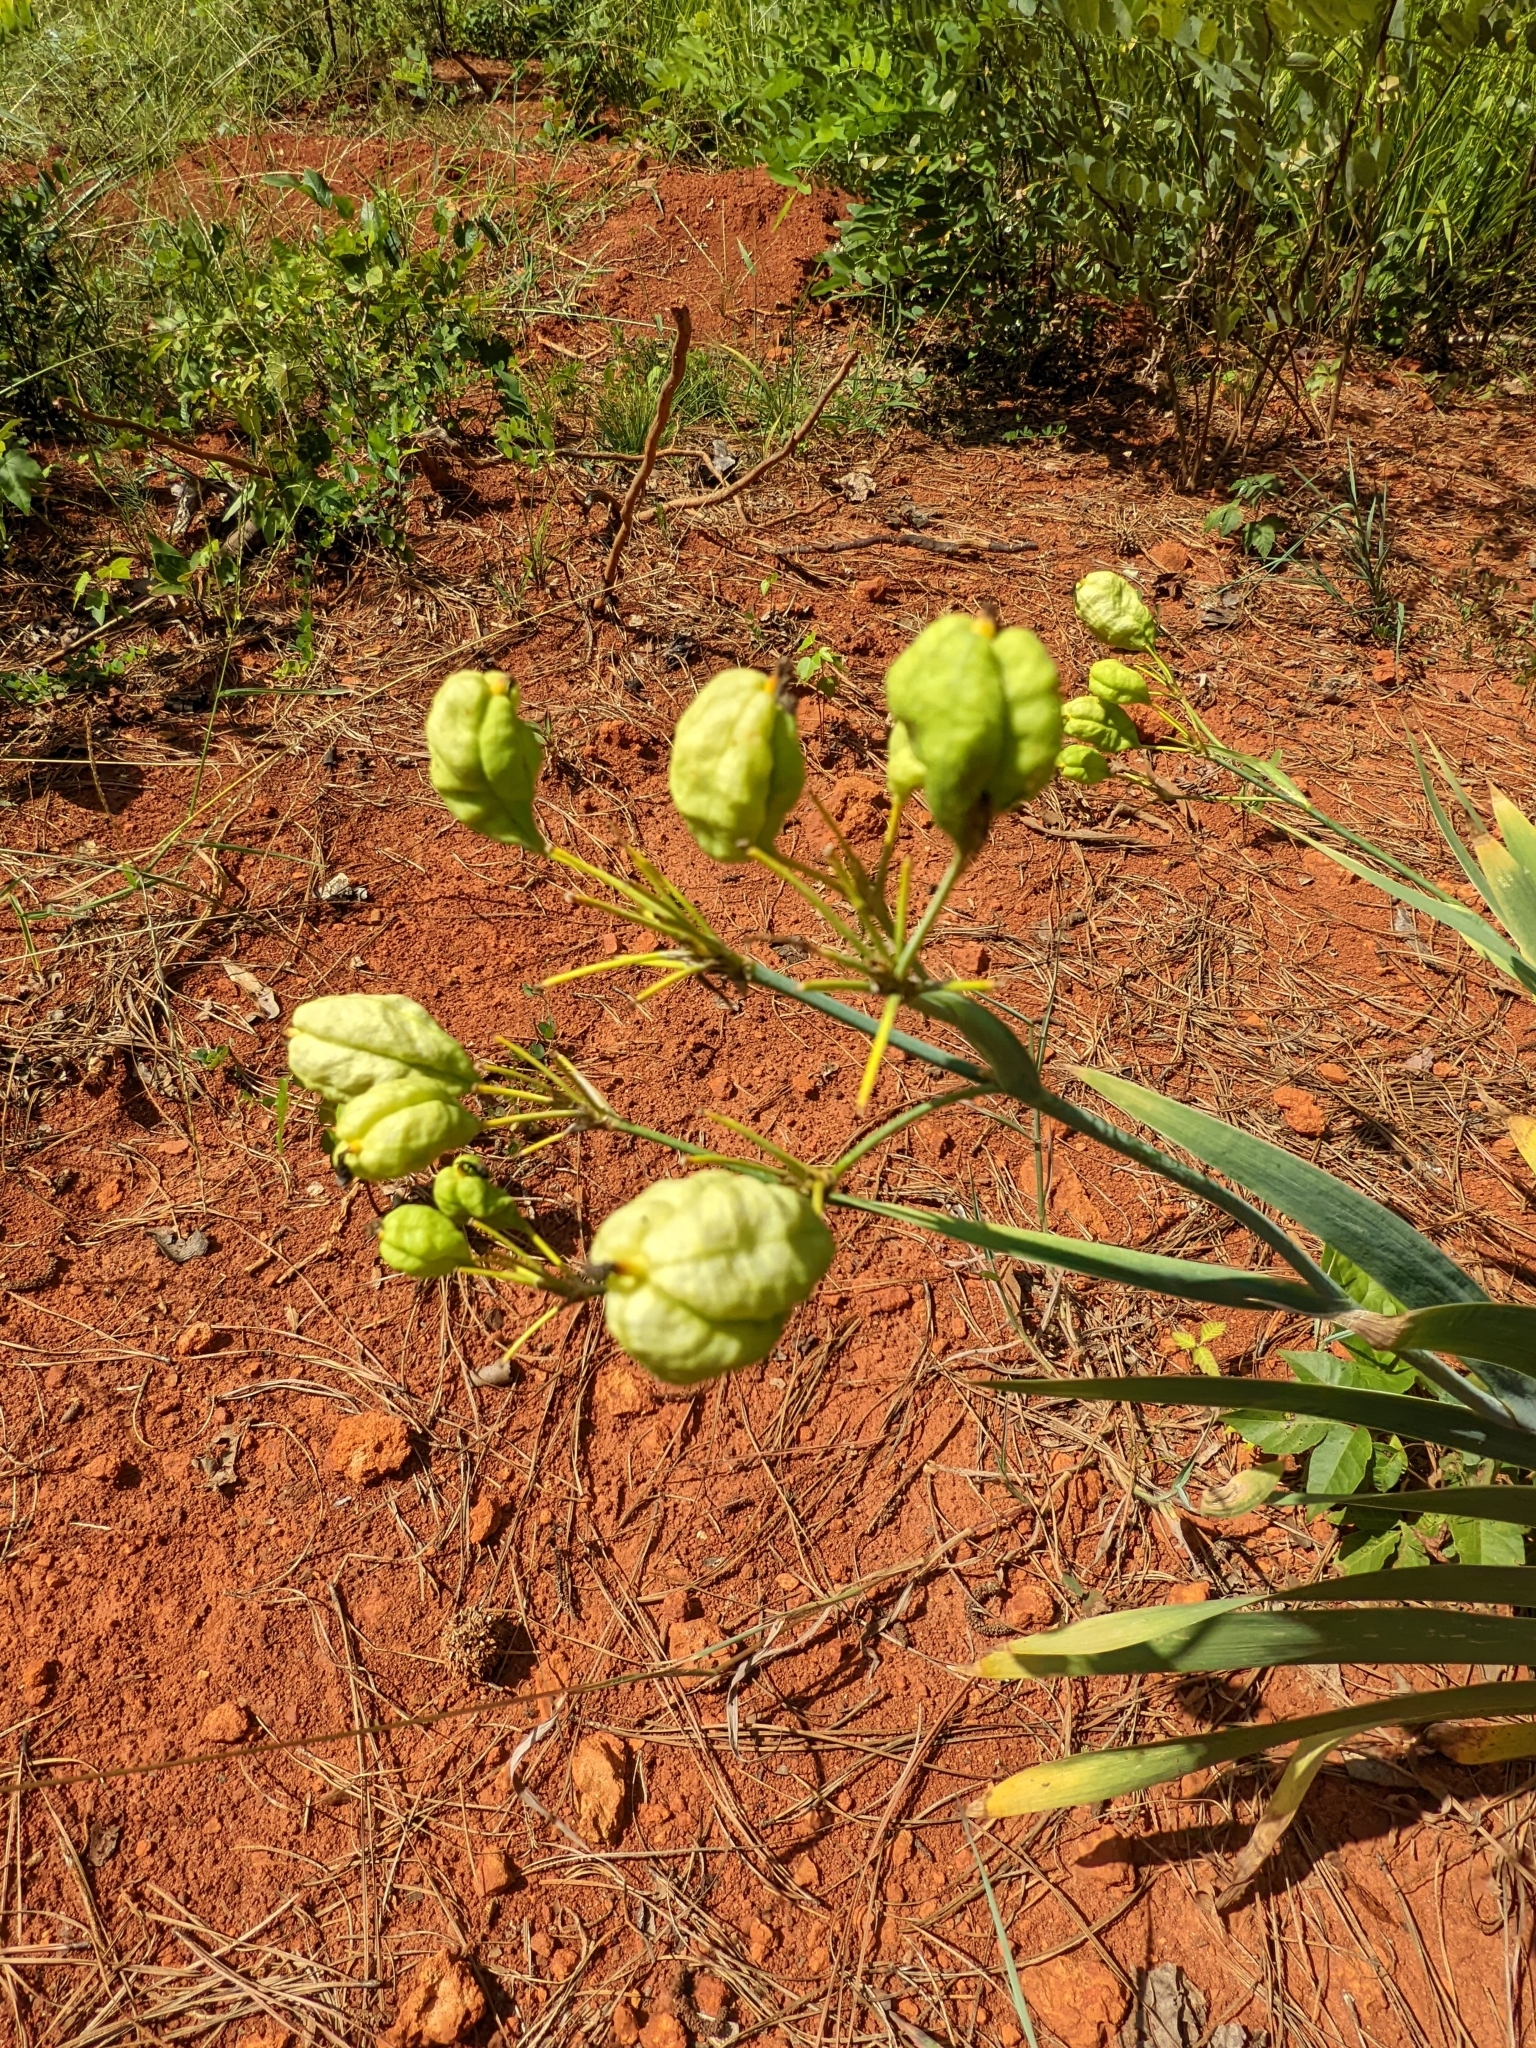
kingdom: Plantae
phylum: Tracheophyta
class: Liliopsida
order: Asparagales
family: Iridaceae
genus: Iris
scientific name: Iris domestica
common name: Belamcanda
